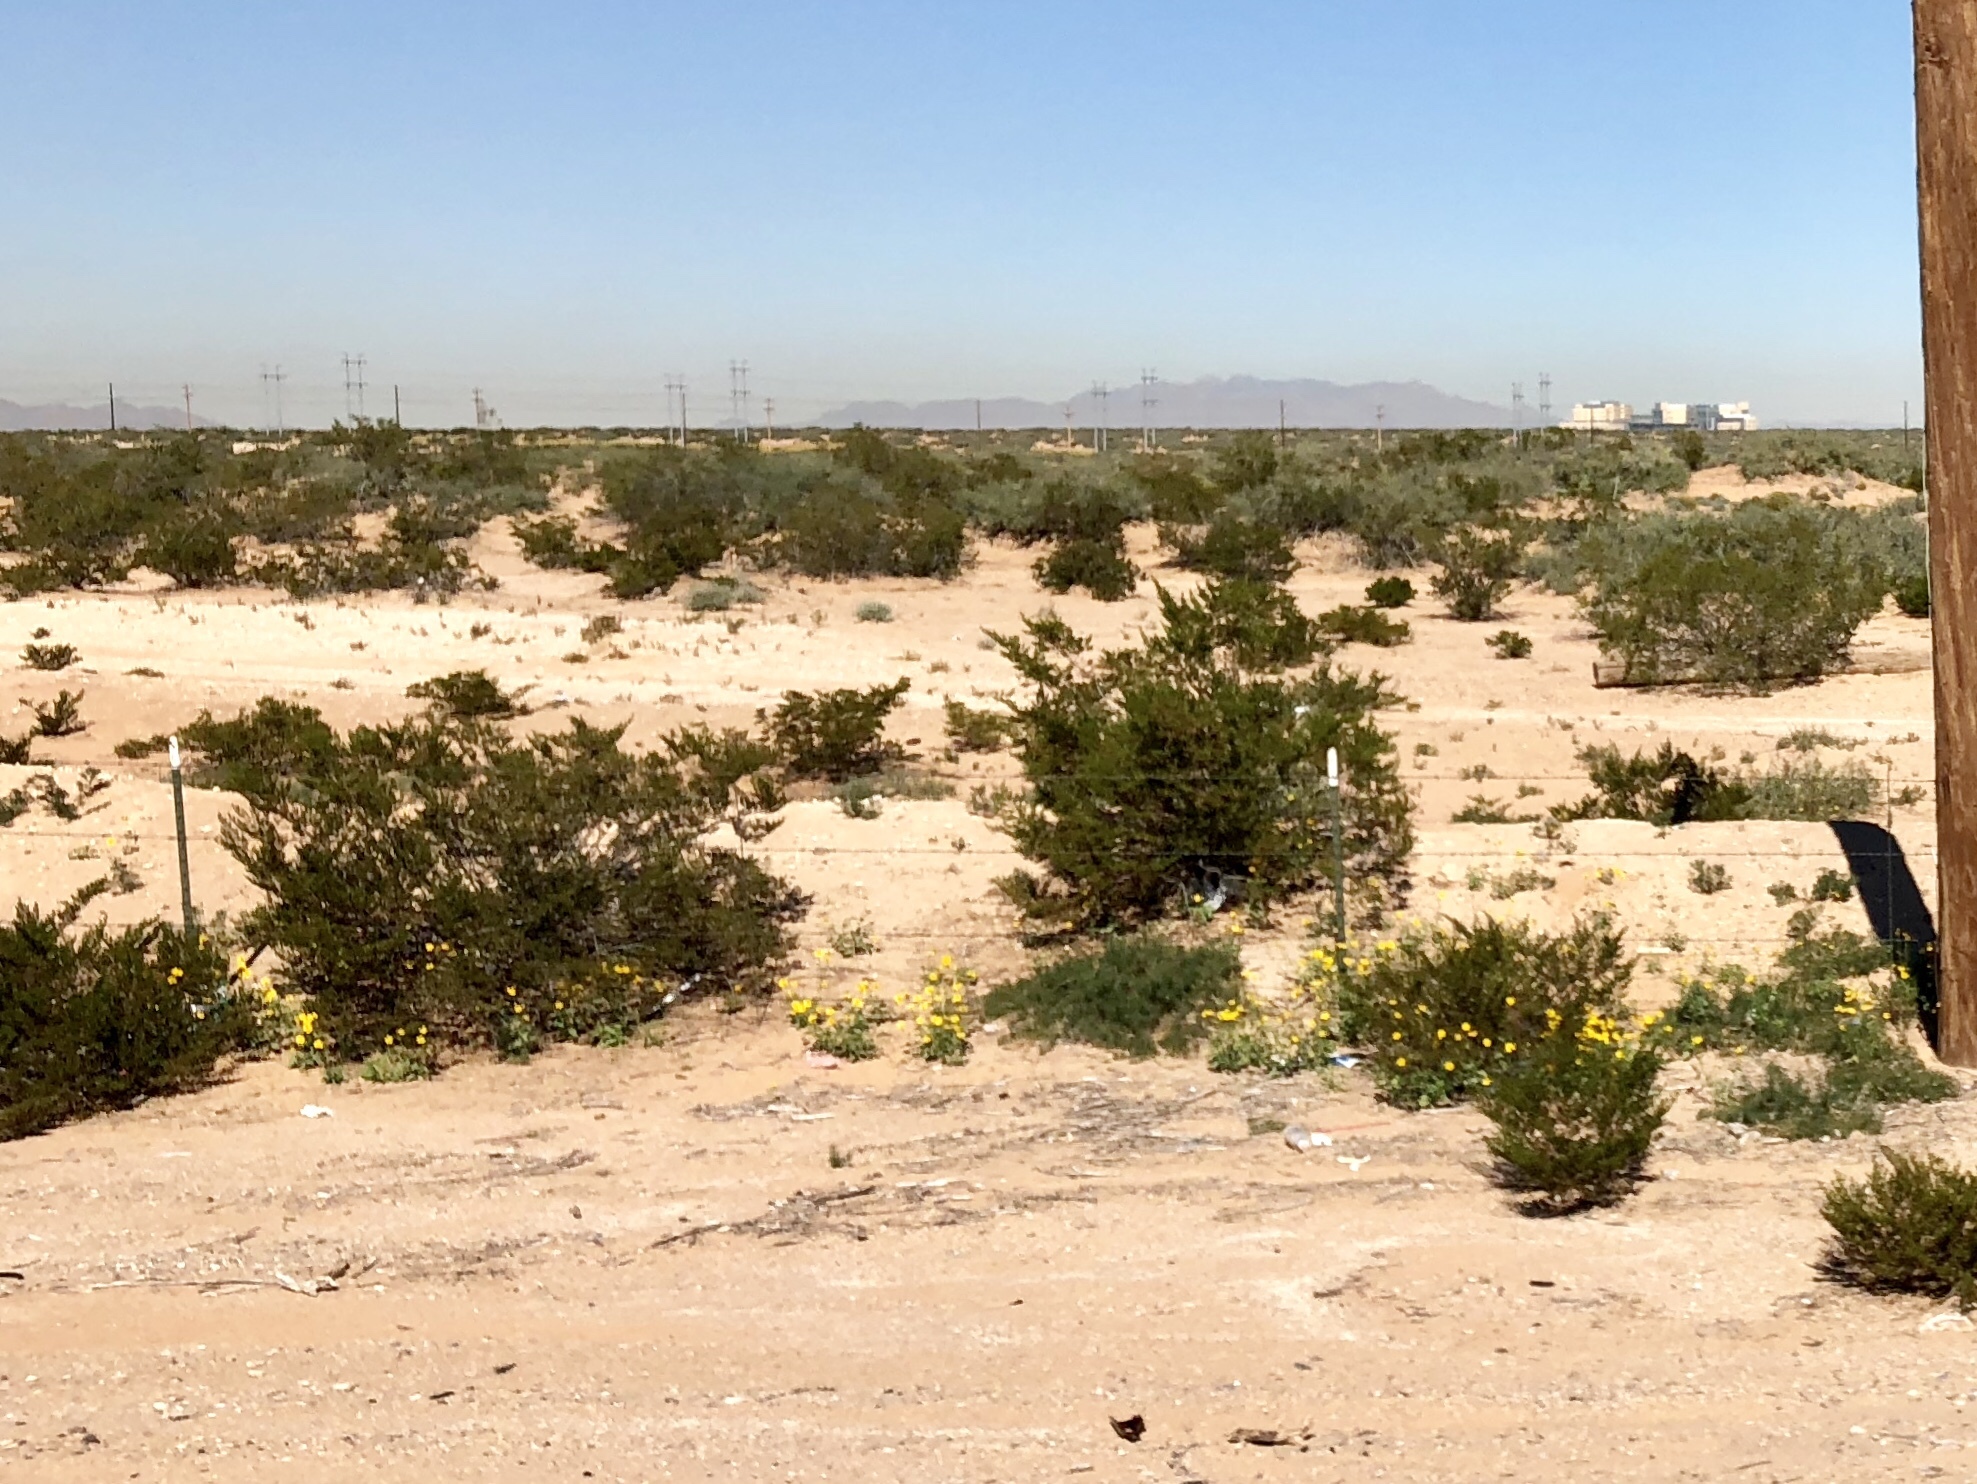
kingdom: Plantae
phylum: Tracheophyta
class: Magnoliopsida
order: Zygophyllales
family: Zygophyllaceae
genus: Larrea
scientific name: Larrea tridentata
